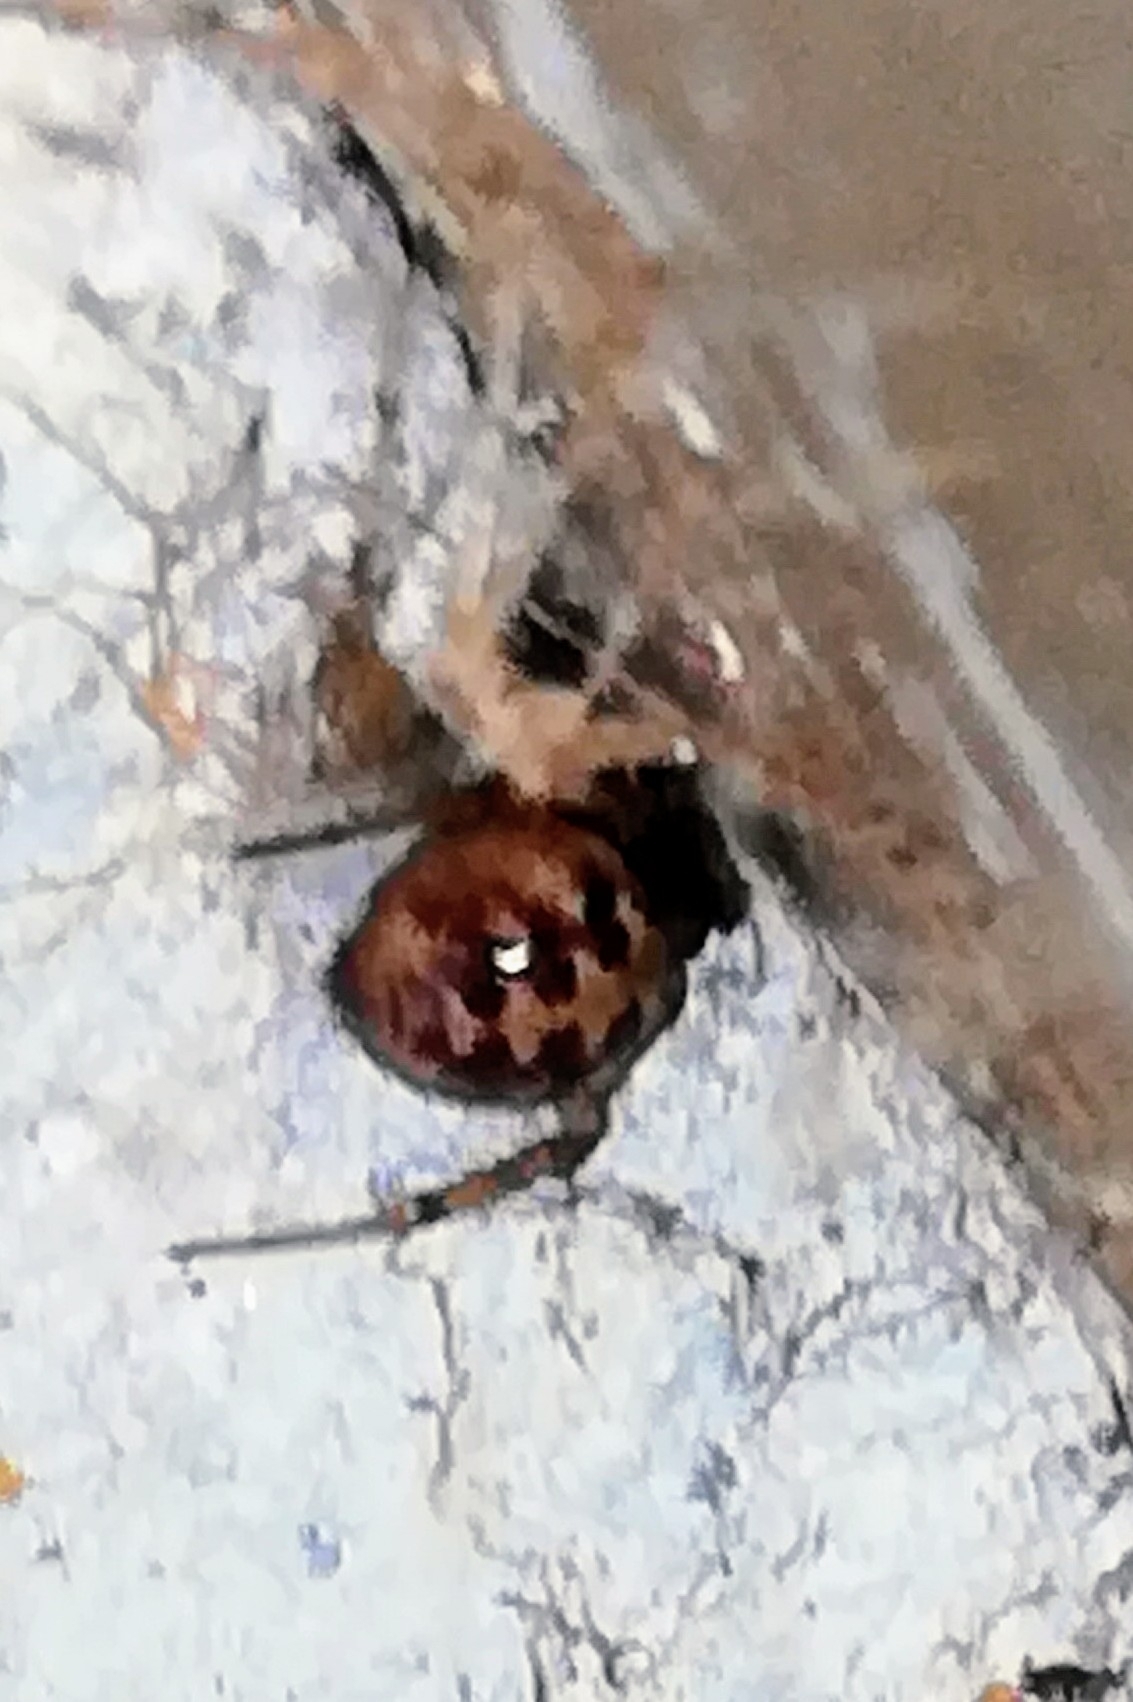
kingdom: Animalia
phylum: Arthropoda
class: Arachnida
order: Araneae
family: Theridiidae
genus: Steatoda
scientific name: Steatoda triangulosa
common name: Triangulate bud spider
